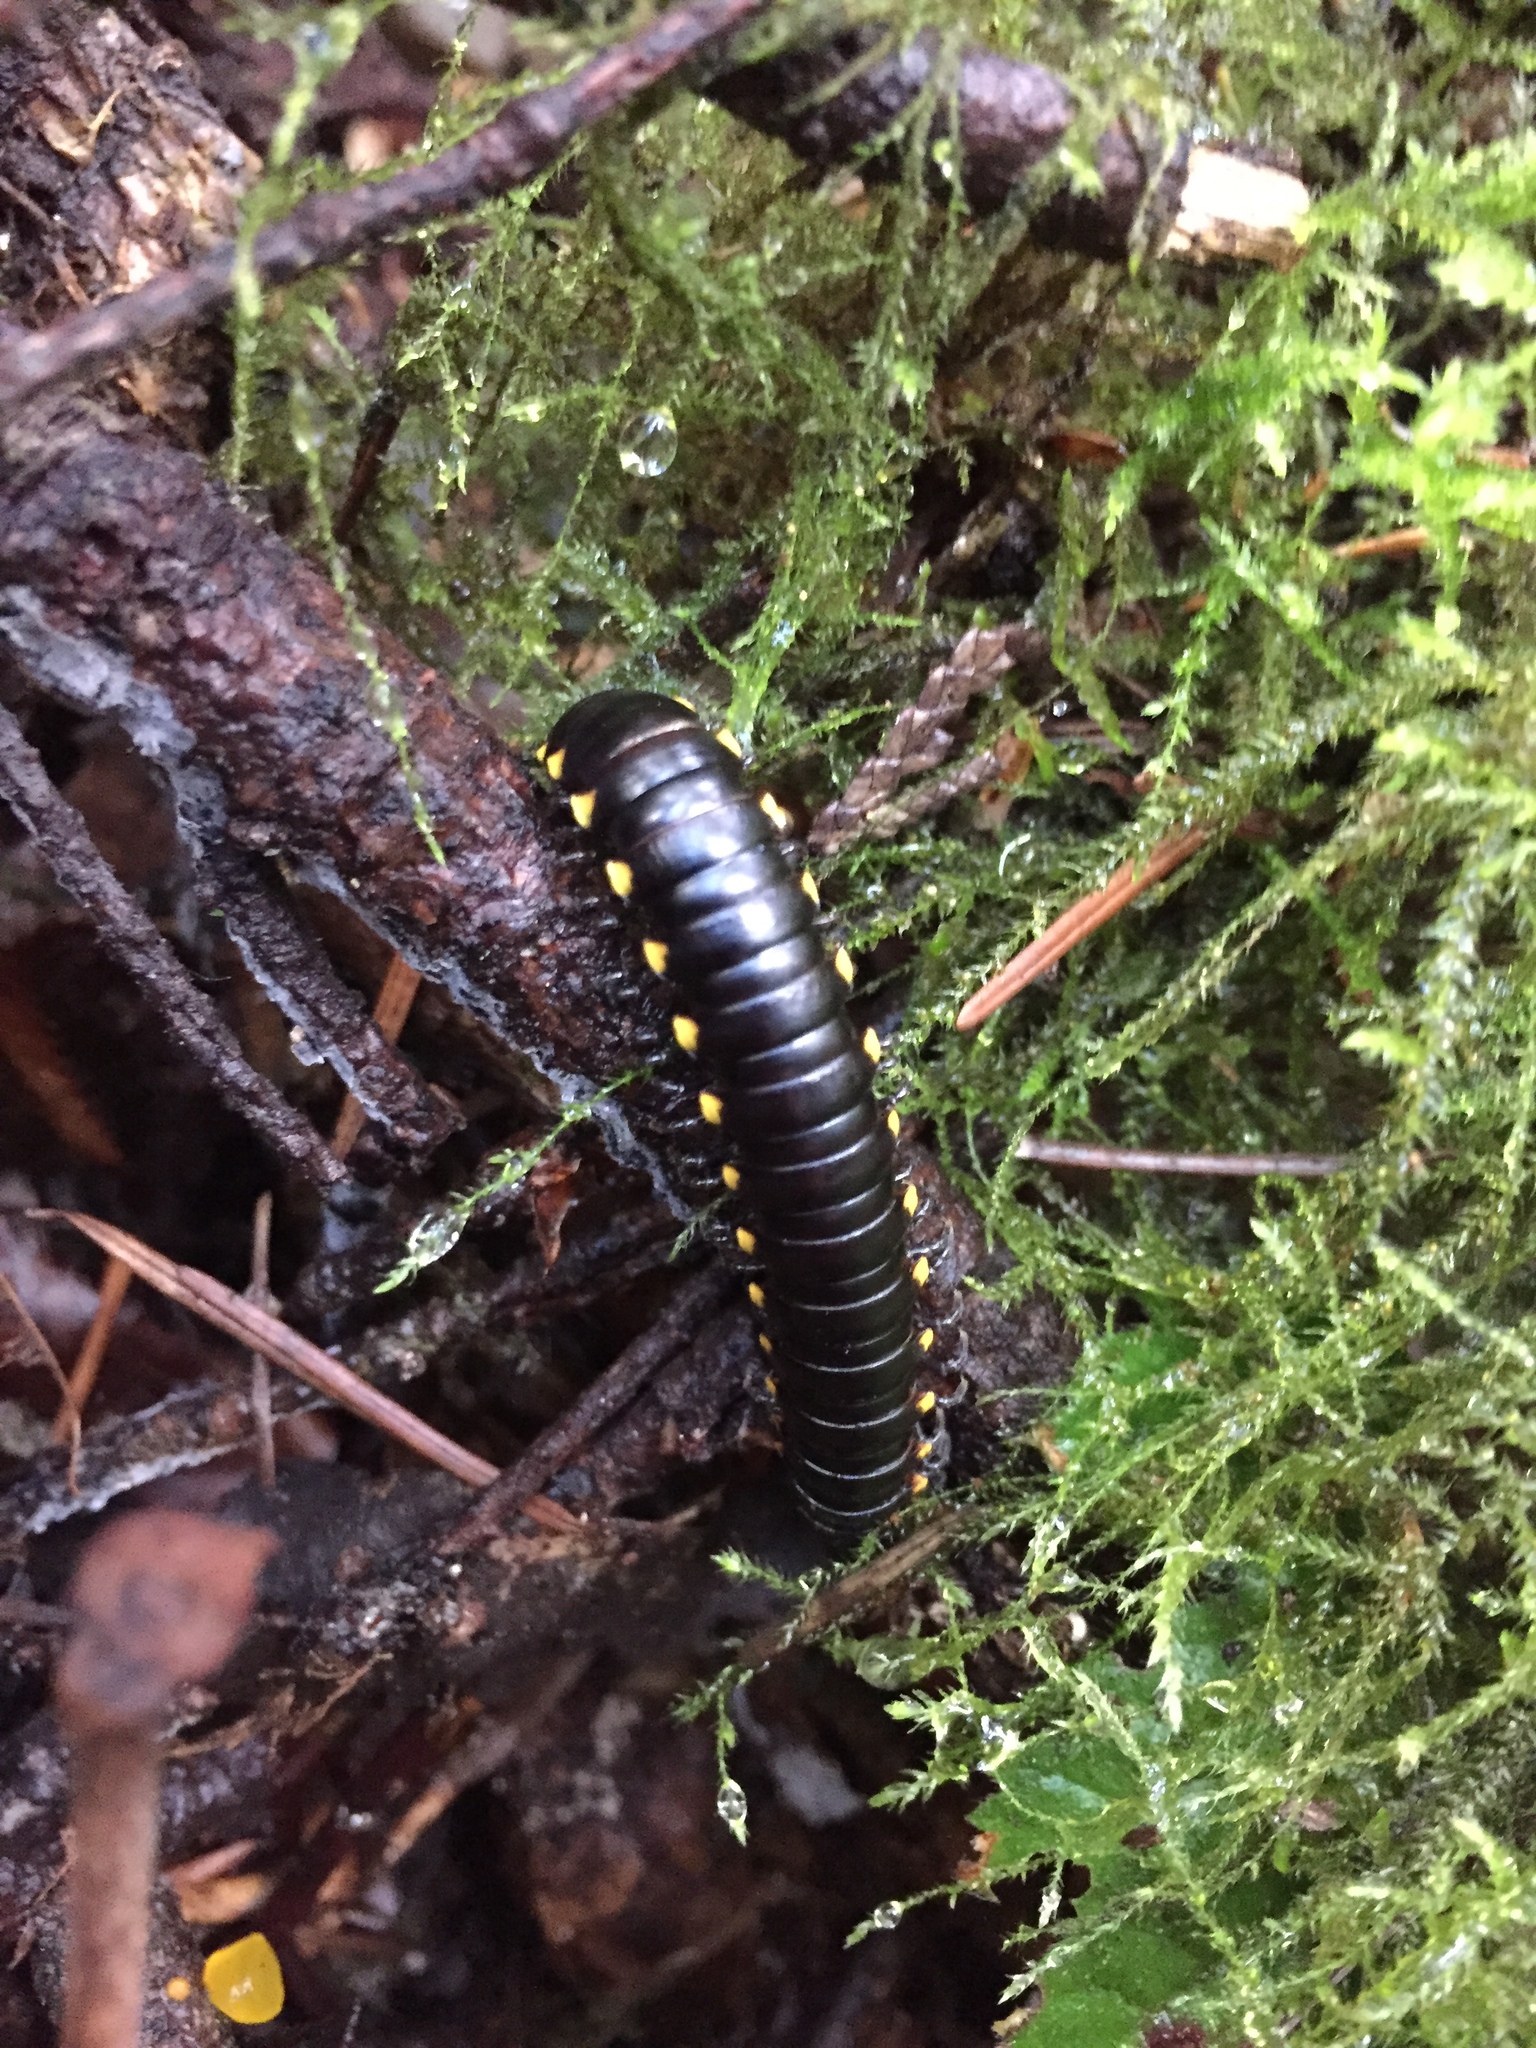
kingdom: Animalia
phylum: Arthropoda
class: Diplopoda
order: Polydesmida
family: Xystodesmidae
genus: Harpaphe
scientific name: Harpaphe haydeniana
